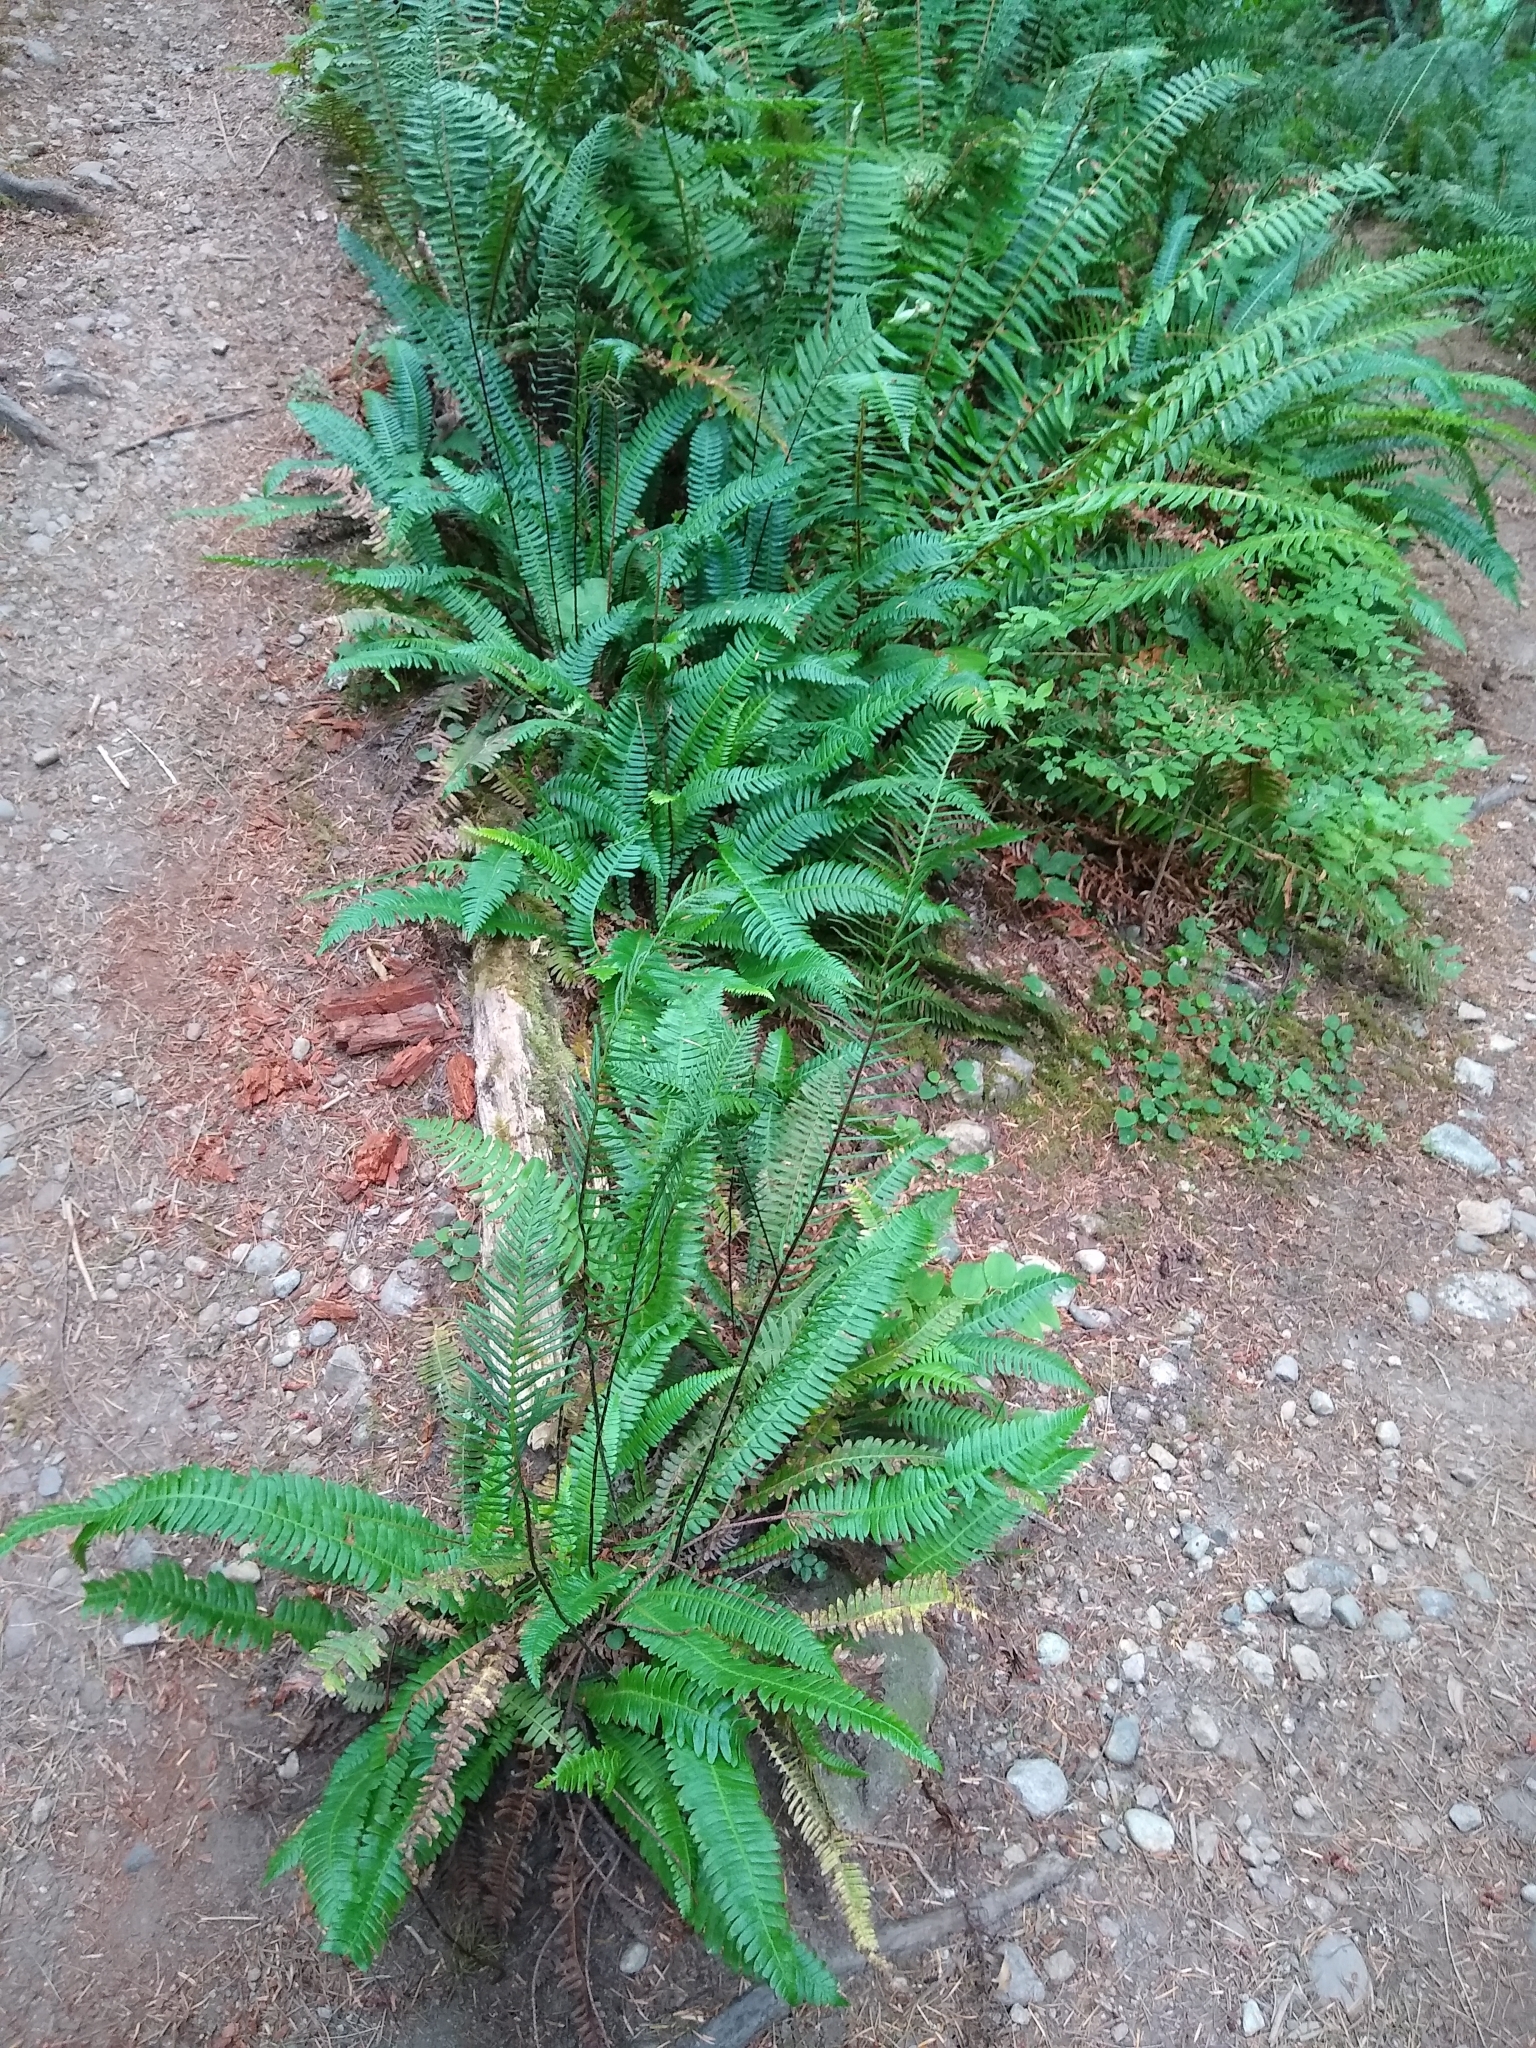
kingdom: Plantae
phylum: Tracheophyta
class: Polypodiopsida
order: Polypodiales
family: Blechnaceae
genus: Struthiopteris
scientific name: Struthiopteris spicant
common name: Deer fern
